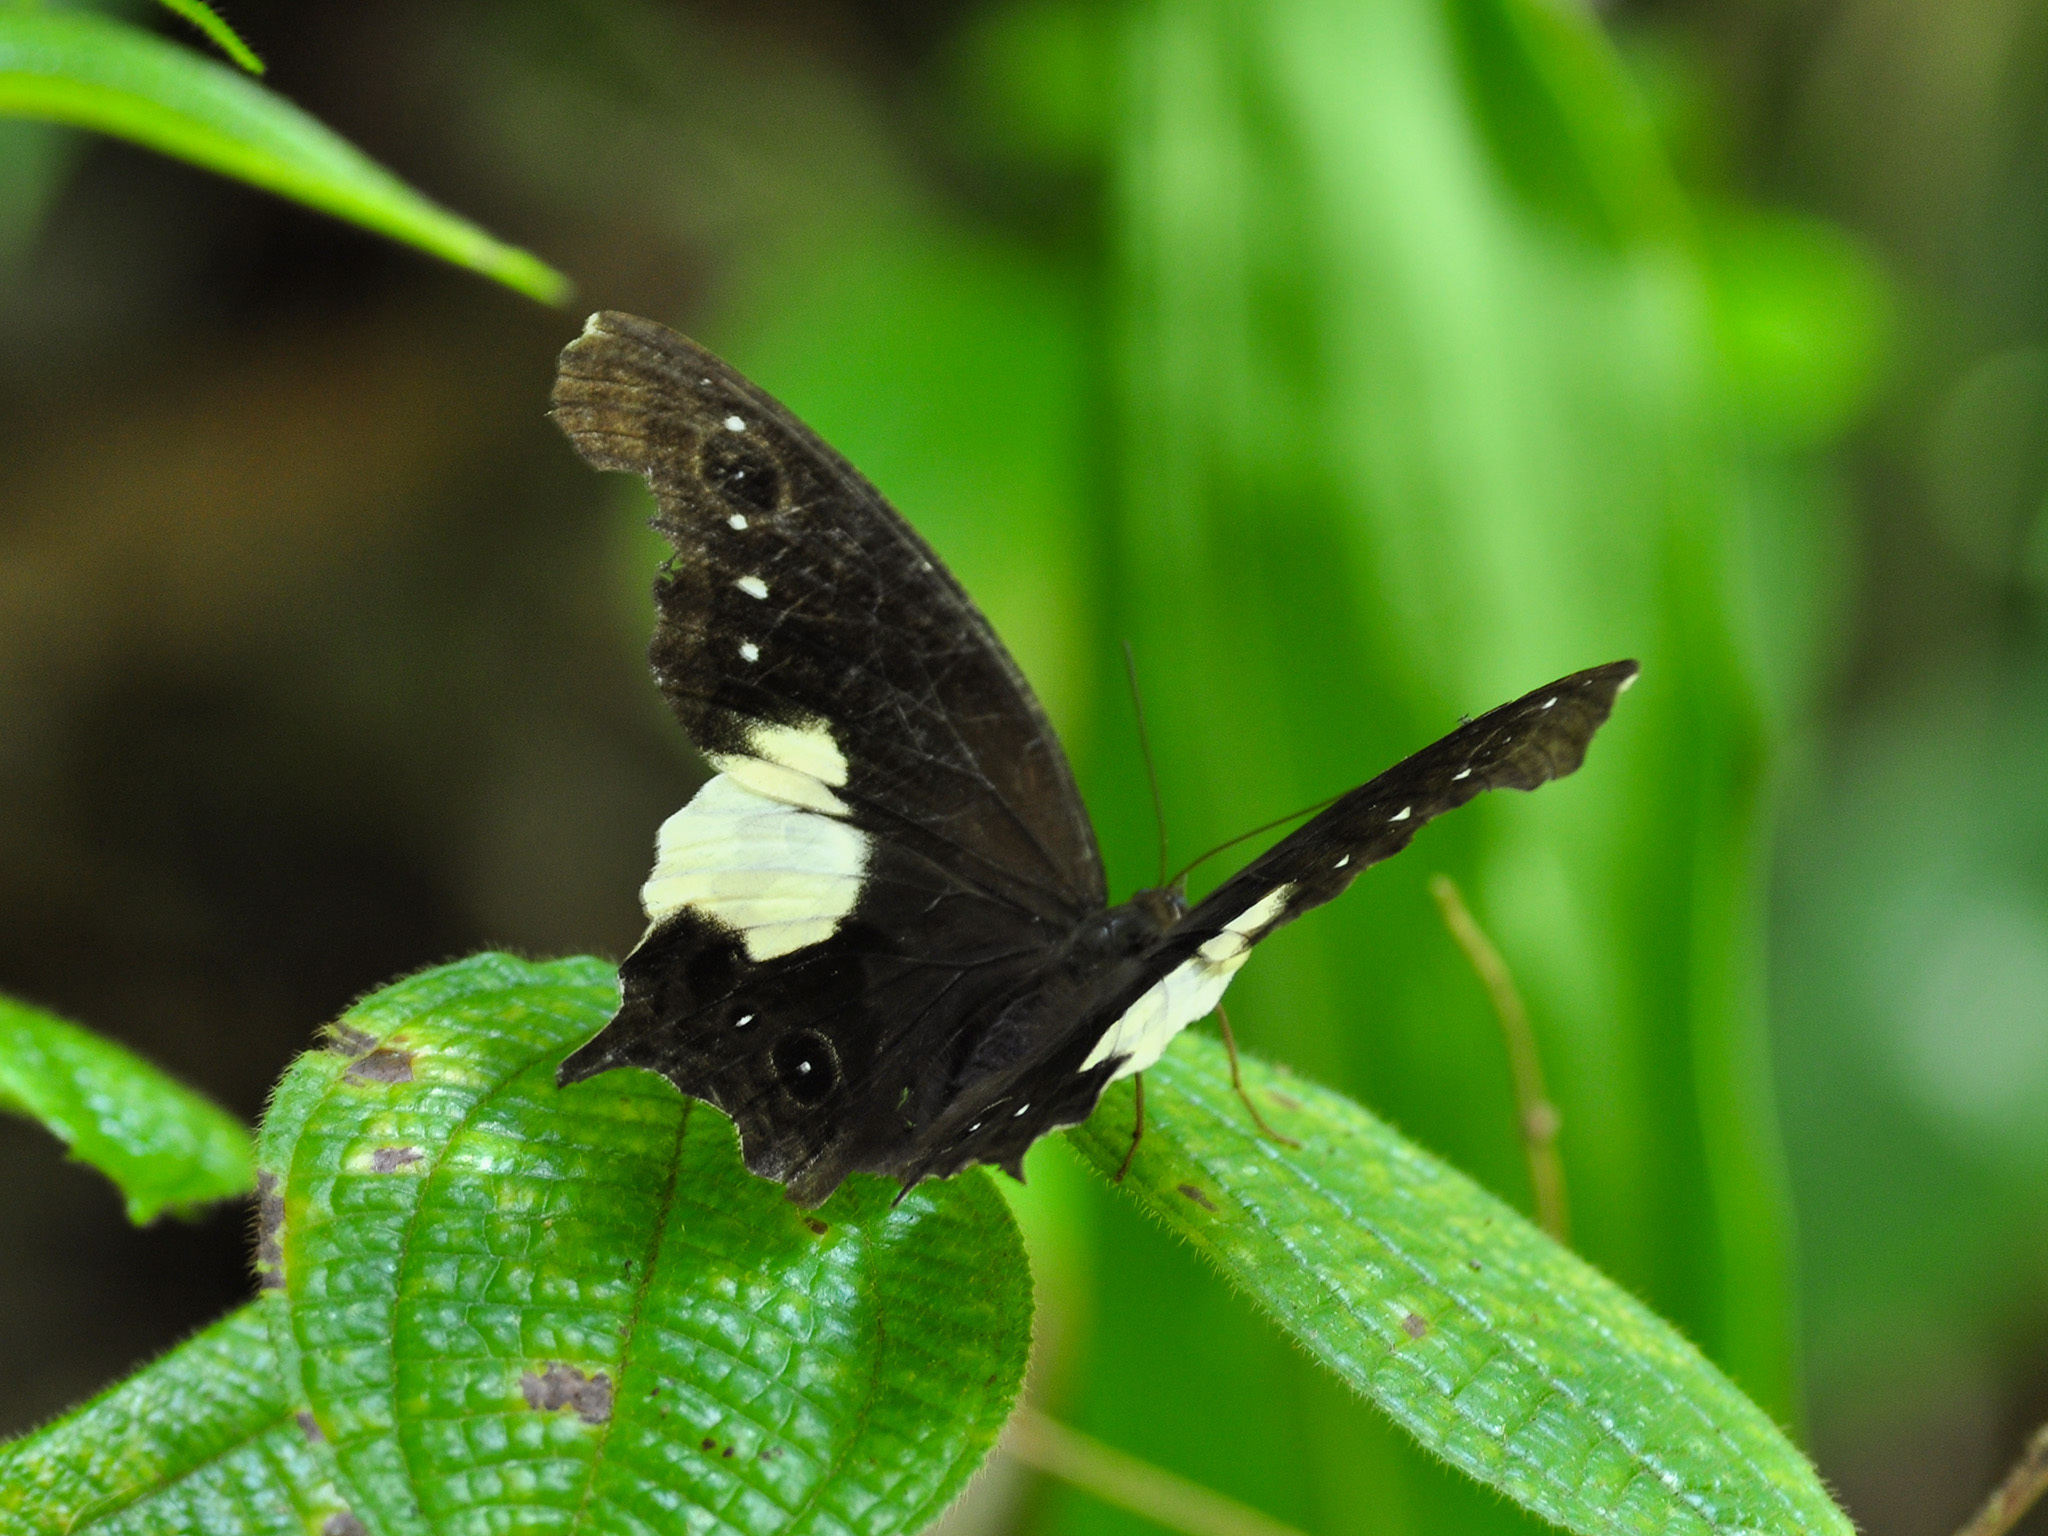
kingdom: Animalia
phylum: Arthropoda
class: Insecta
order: Lepidoptera
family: Nymphalidae
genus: Neorina
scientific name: Neorina lowii
